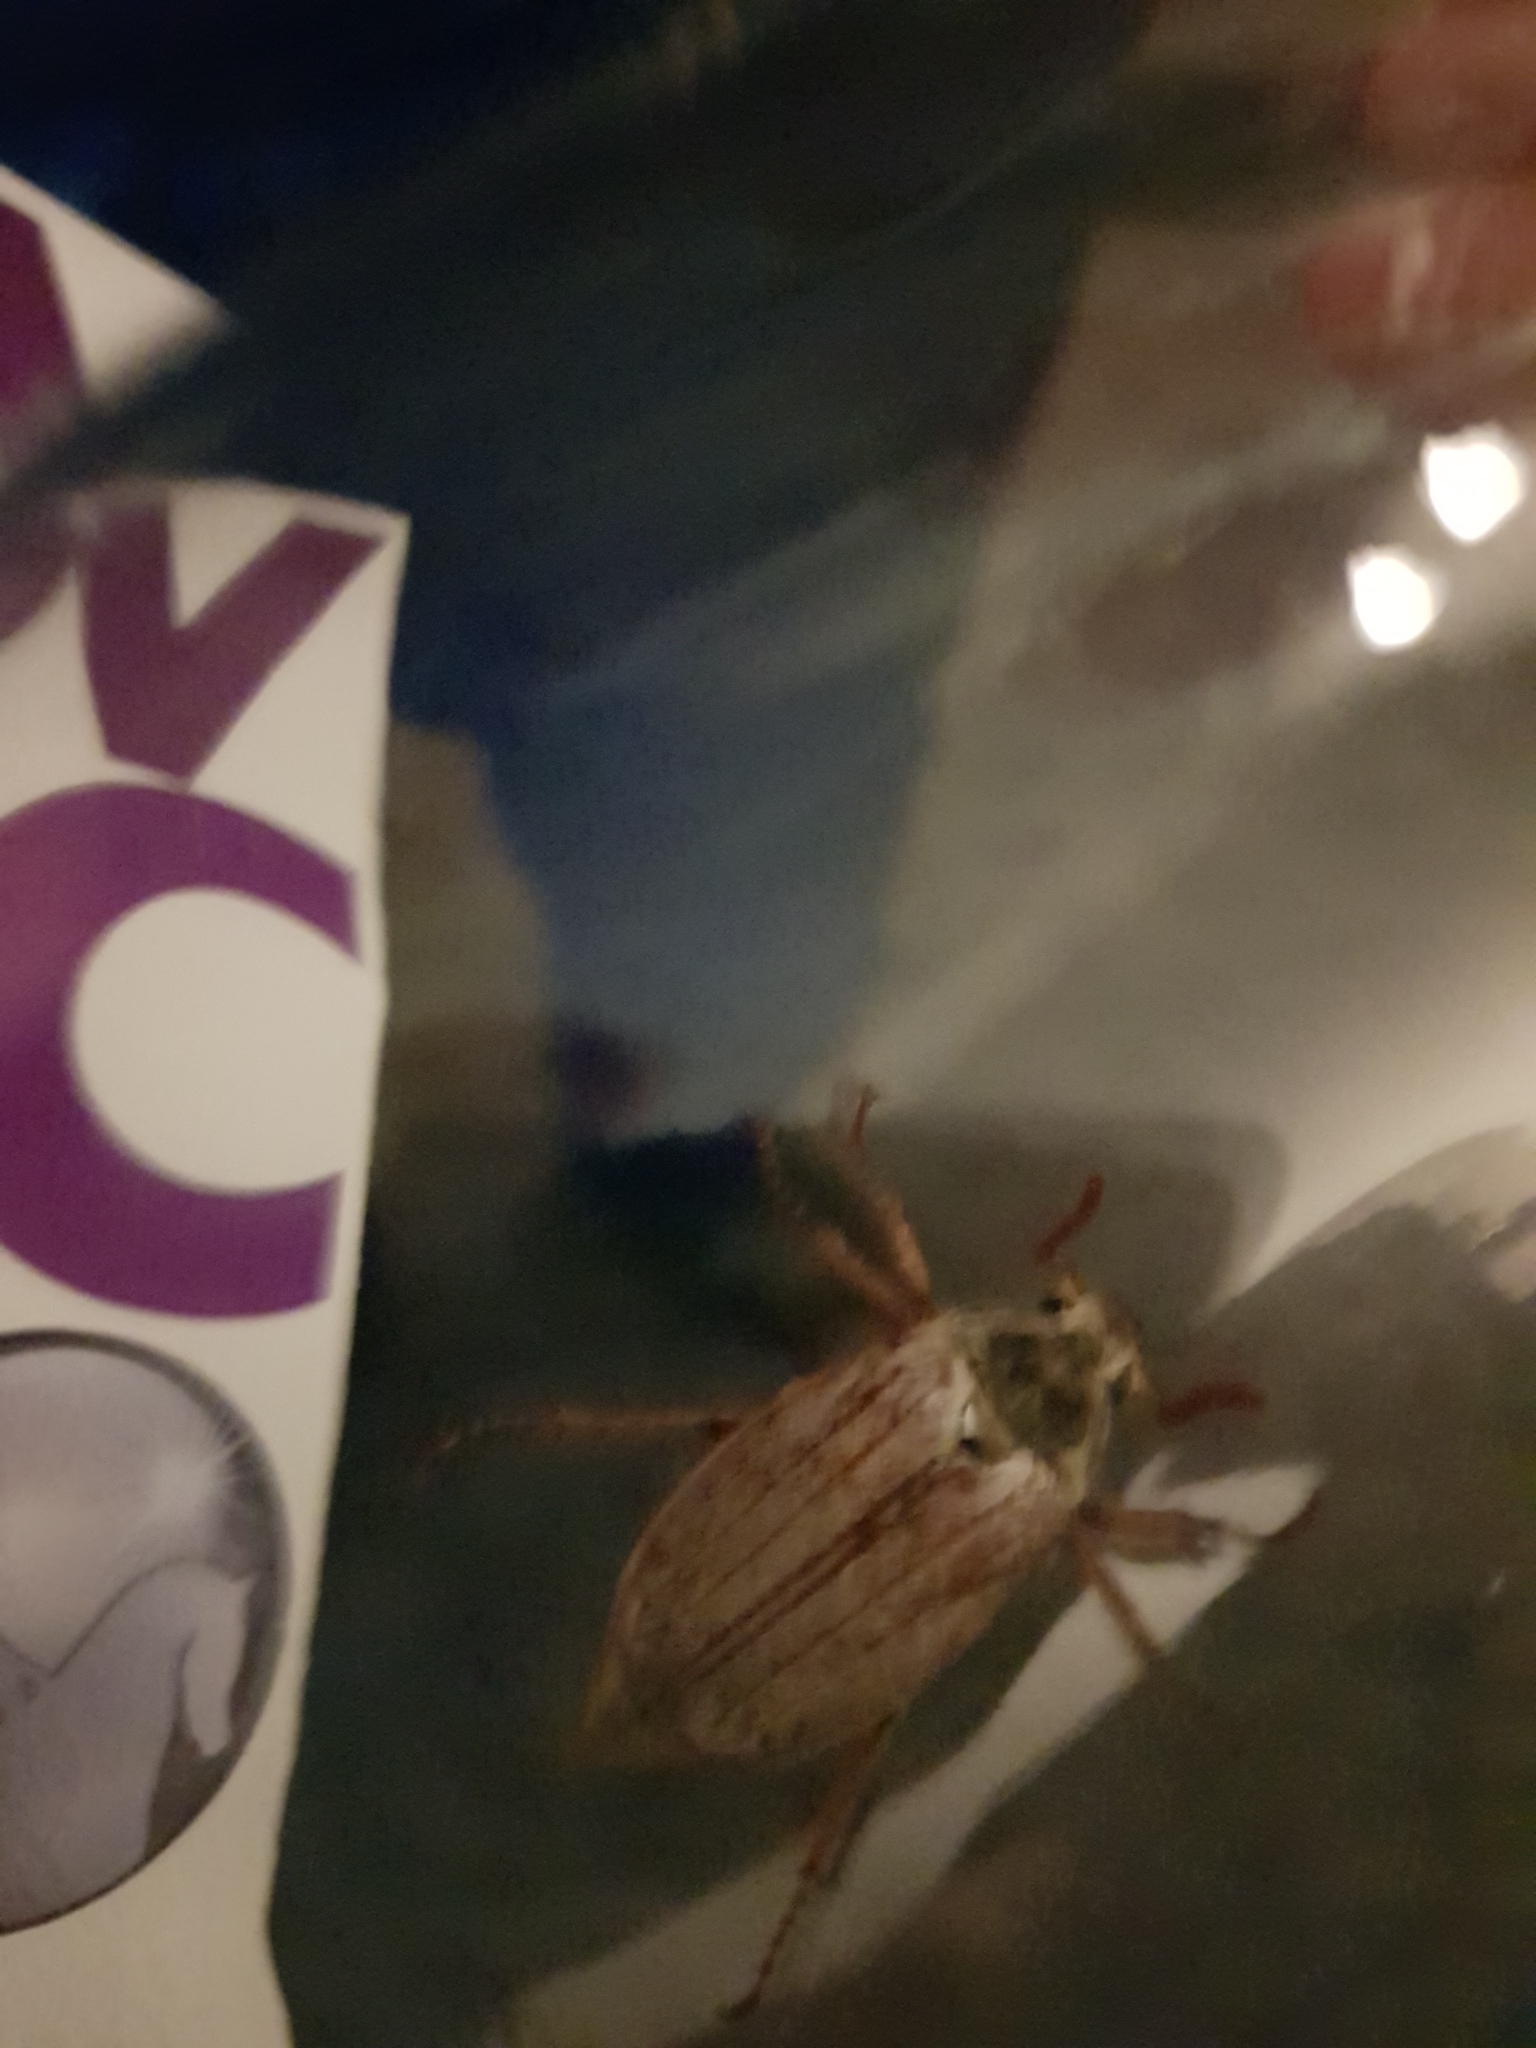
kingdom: Animalia
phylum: Arthropoda
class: Insecta
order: Coleoptera
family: Scarabaeidae
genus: Melolontha
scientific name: Melolontha melolontha
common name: Cockchafer maybeetle
